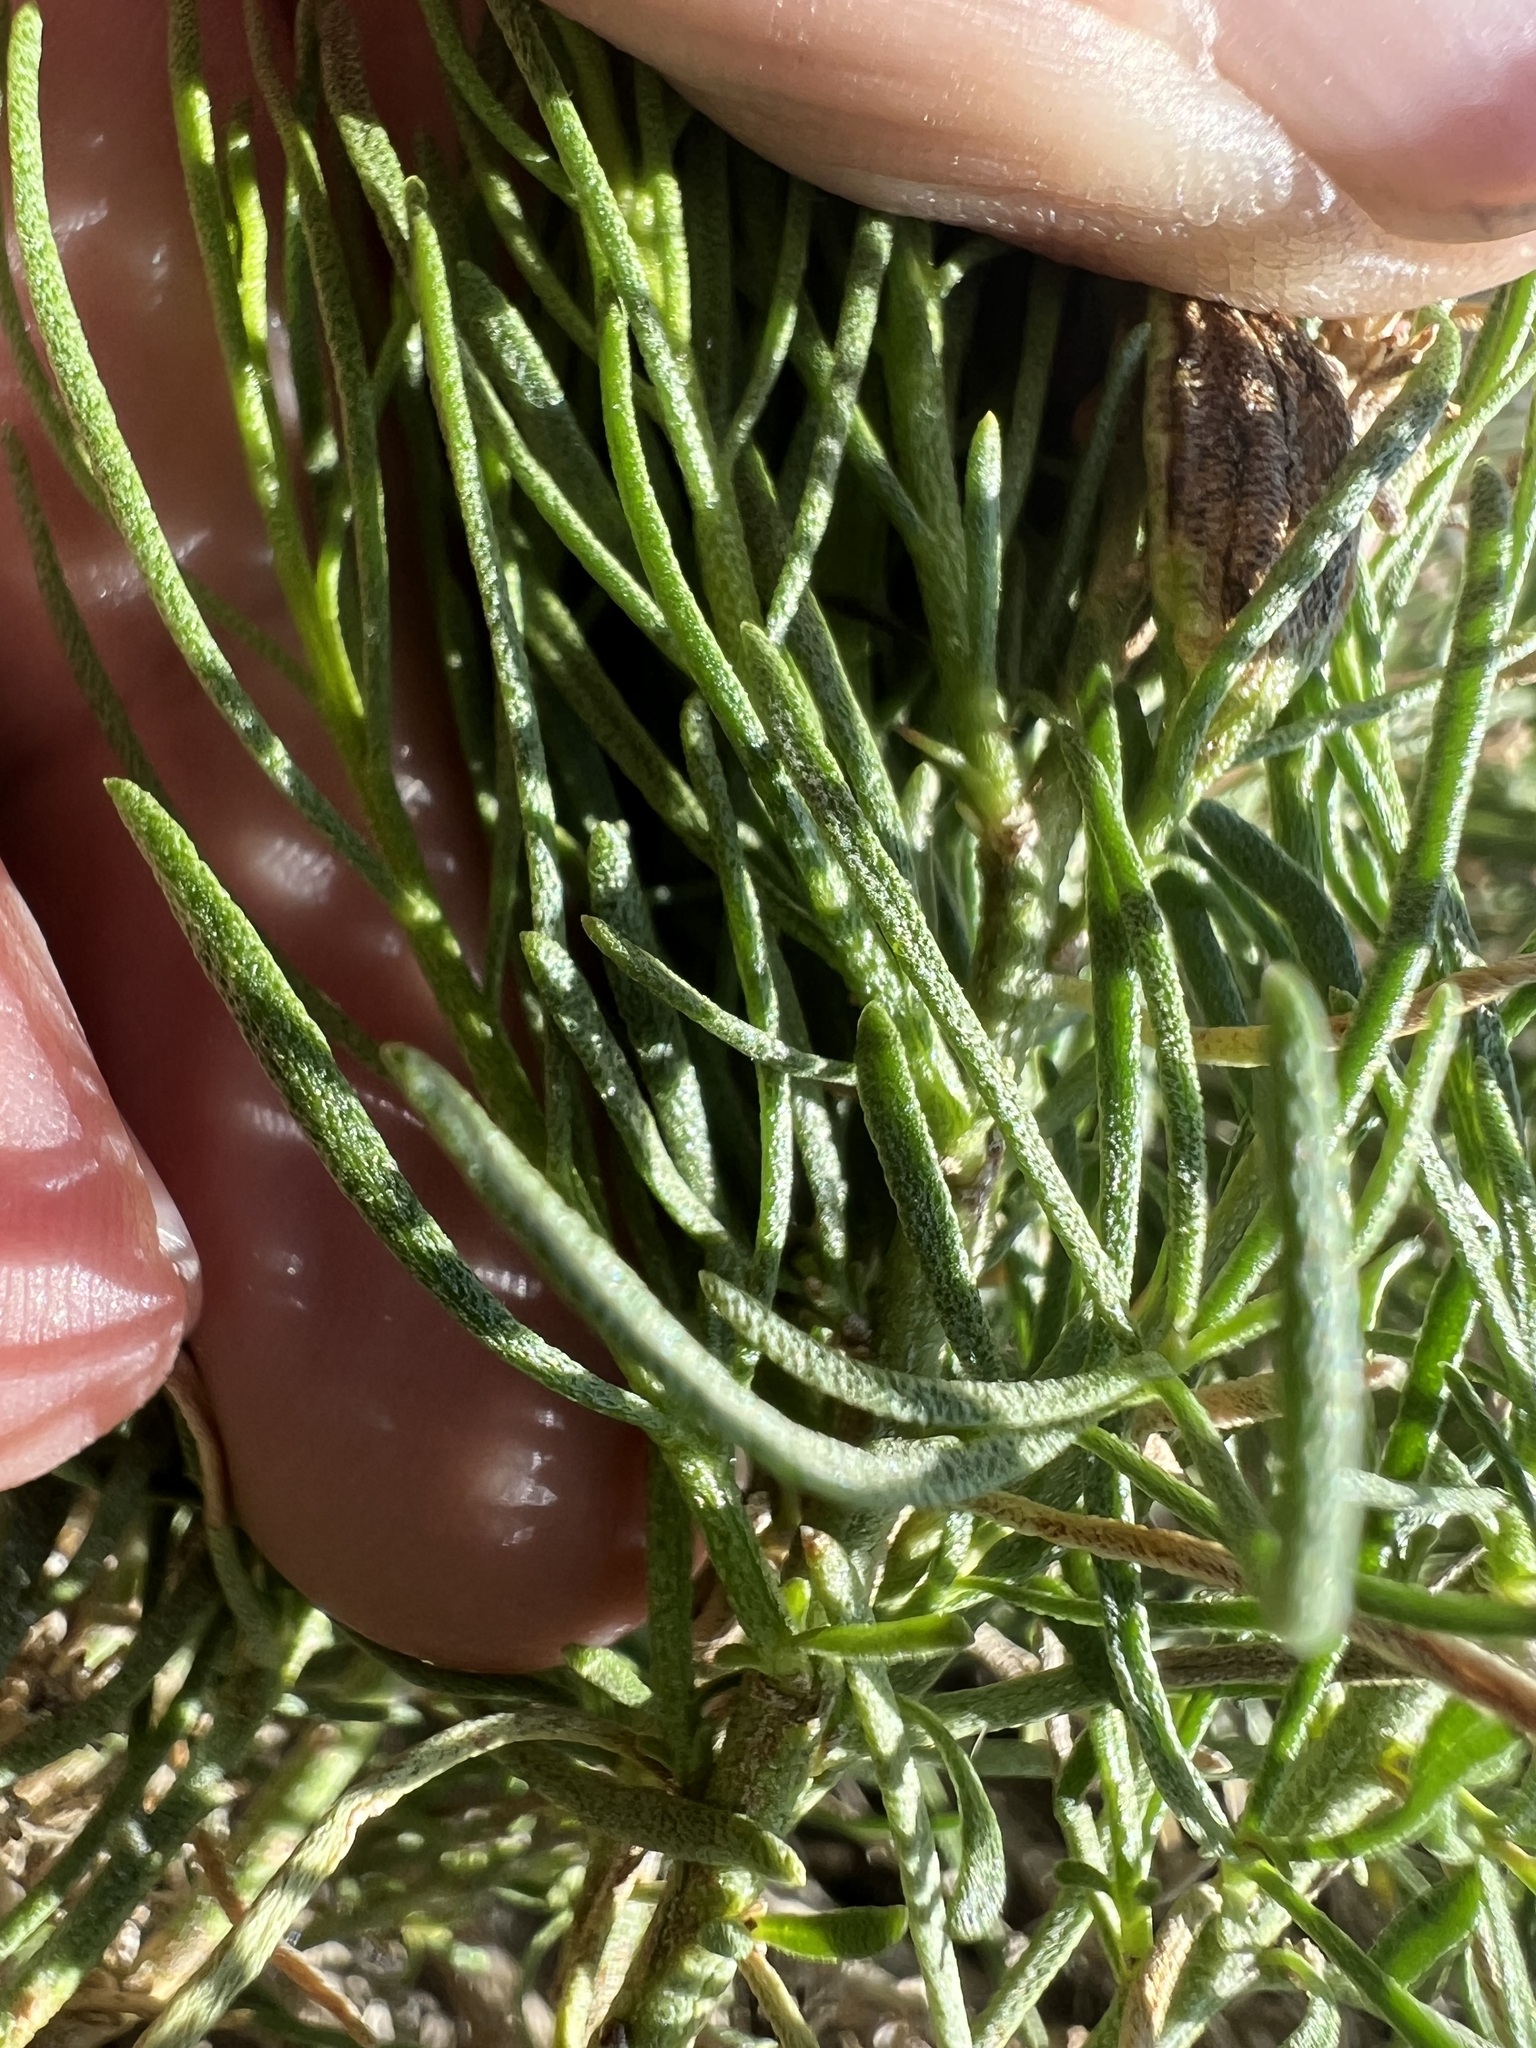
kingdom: Plantae
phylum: Tracheophyta
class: Magnoliopsida
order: Asterales
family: Asteraceae
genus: Ericameria
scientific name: Ericameria teretifolia
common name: Round-leaf rabbitbrush
